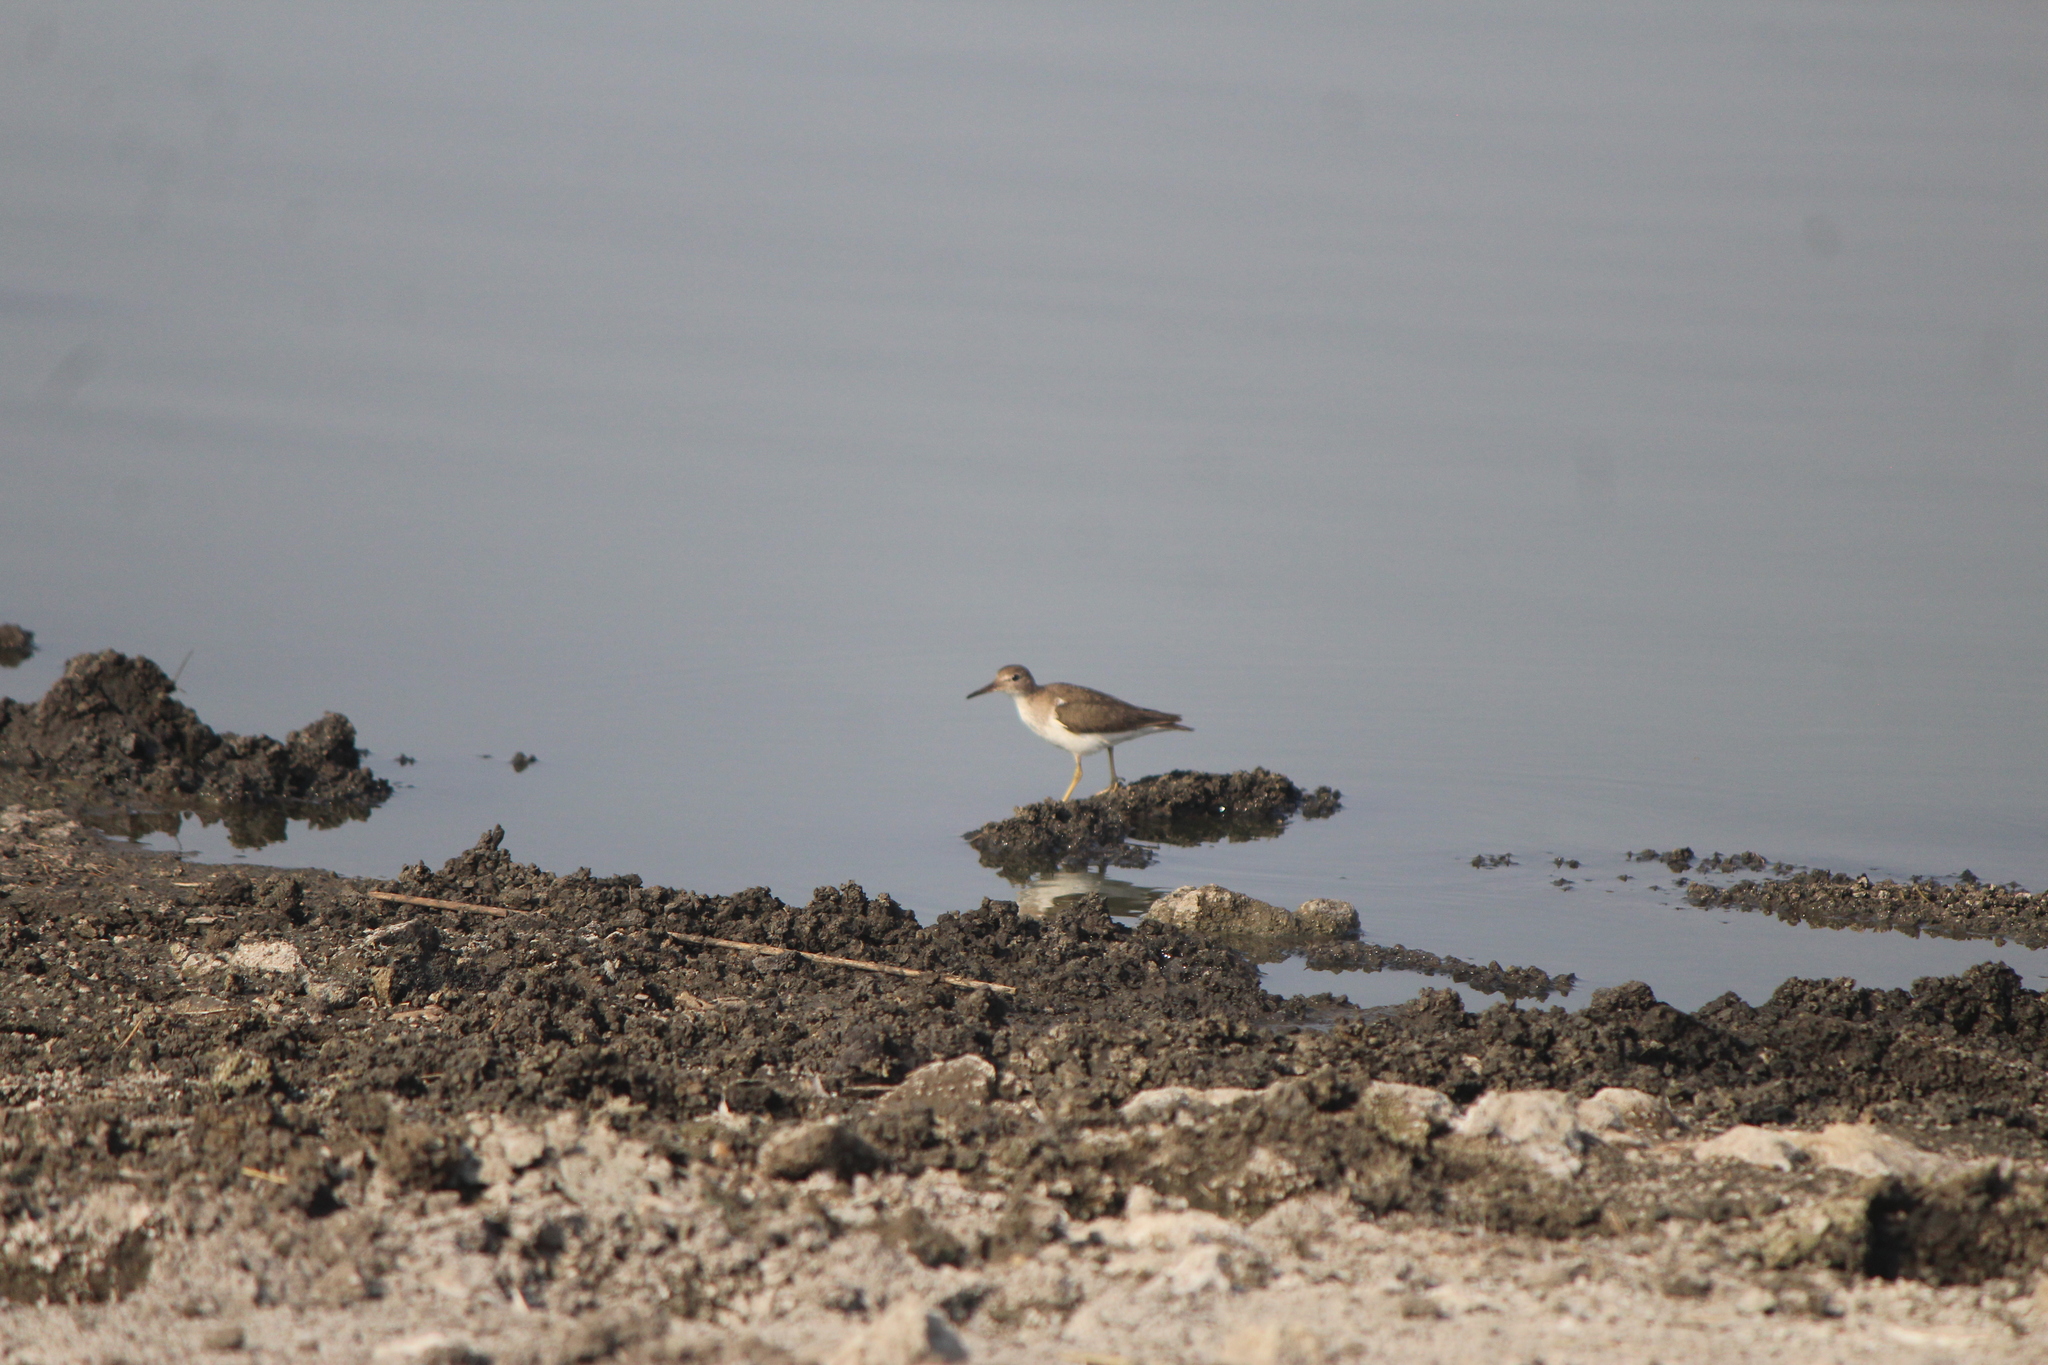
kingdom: Animalia
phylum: Chordata
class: Aves
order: Charadriiformes
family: Scolopacidae
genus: Actitis
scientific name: Actitis macularius
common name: Spotted sandpiper
